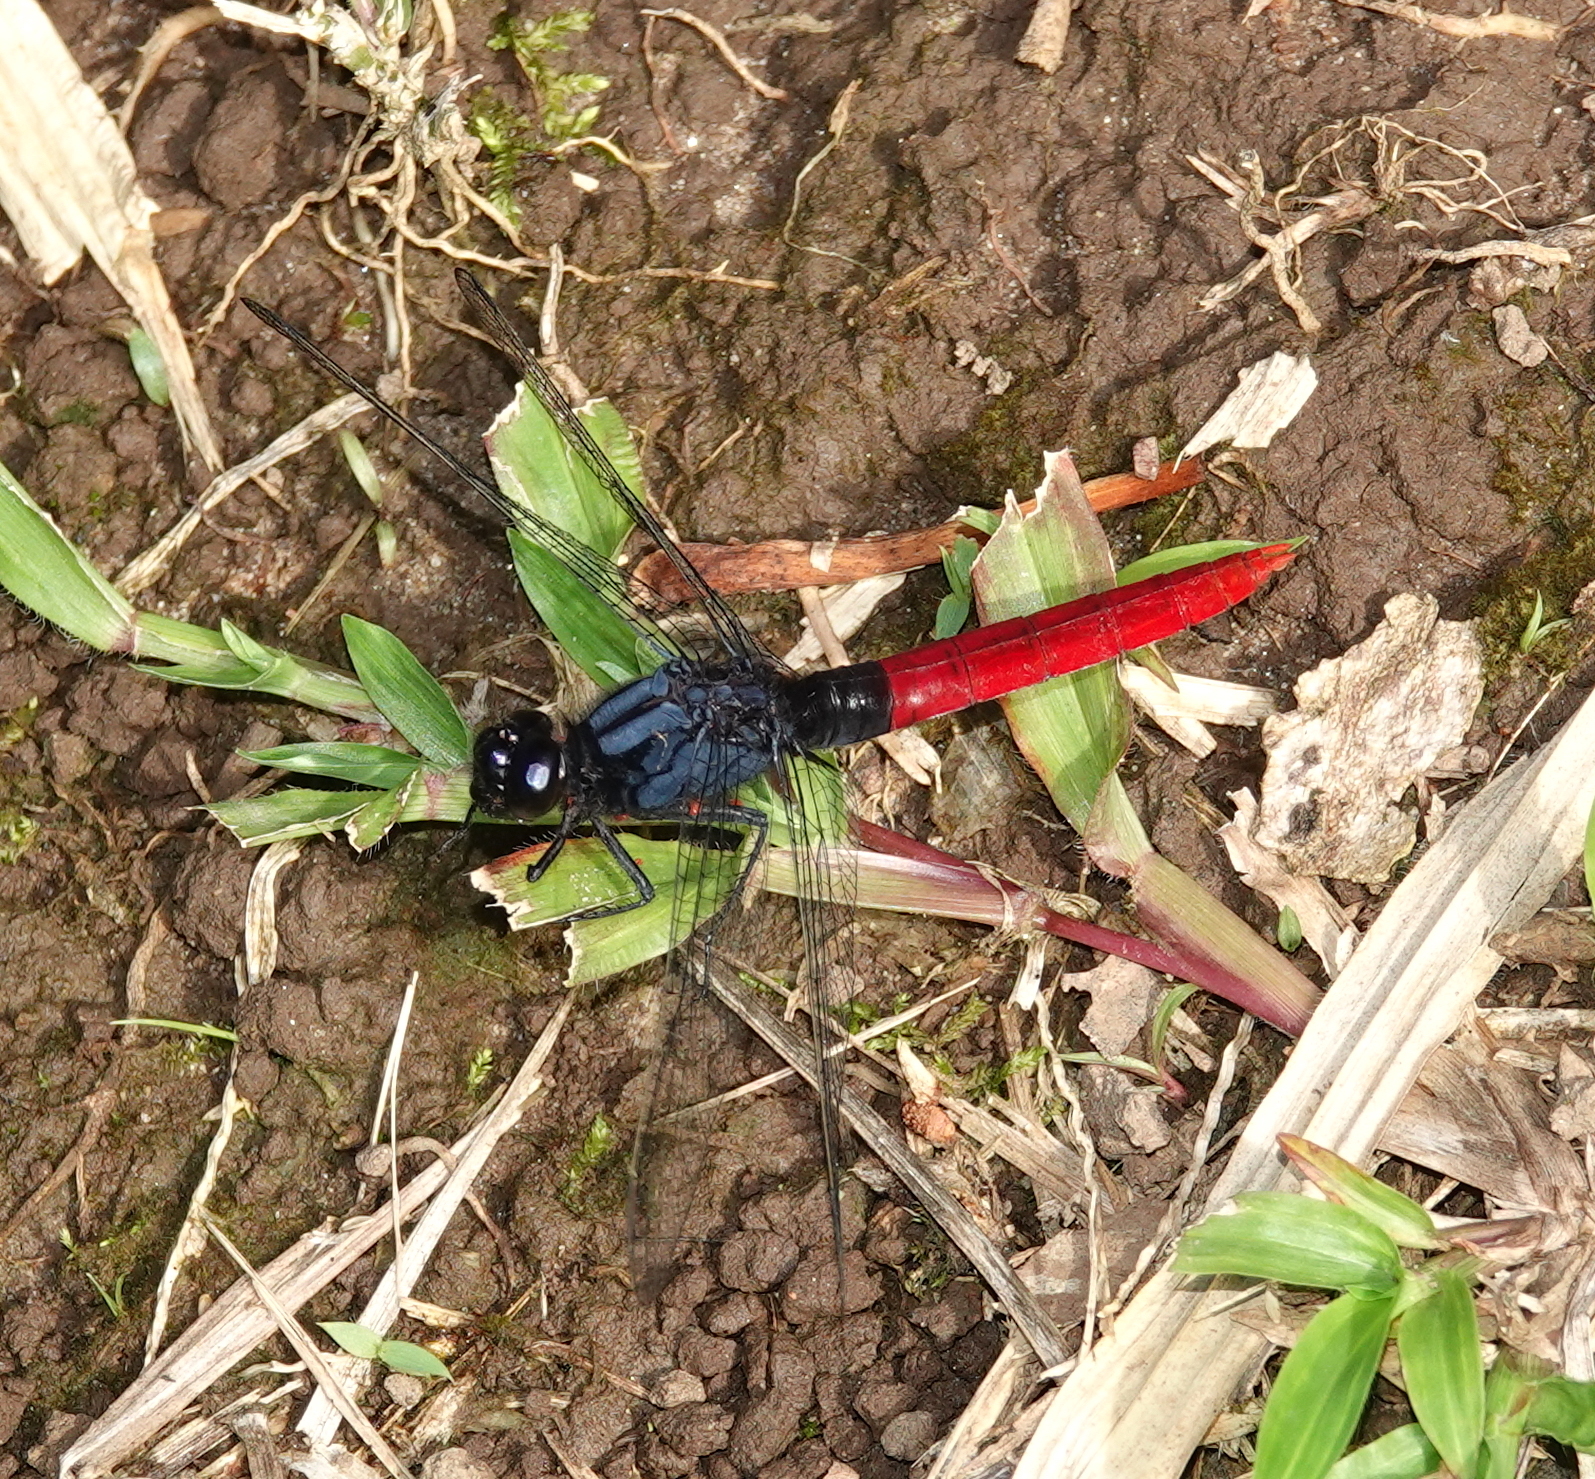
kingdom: Animalia
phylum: Arthropoda
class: Insecta
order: Odonata
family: Libellulidae
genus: Erythemis
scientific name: Erythemis peruviana
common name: Flame-tailed pondhawk
